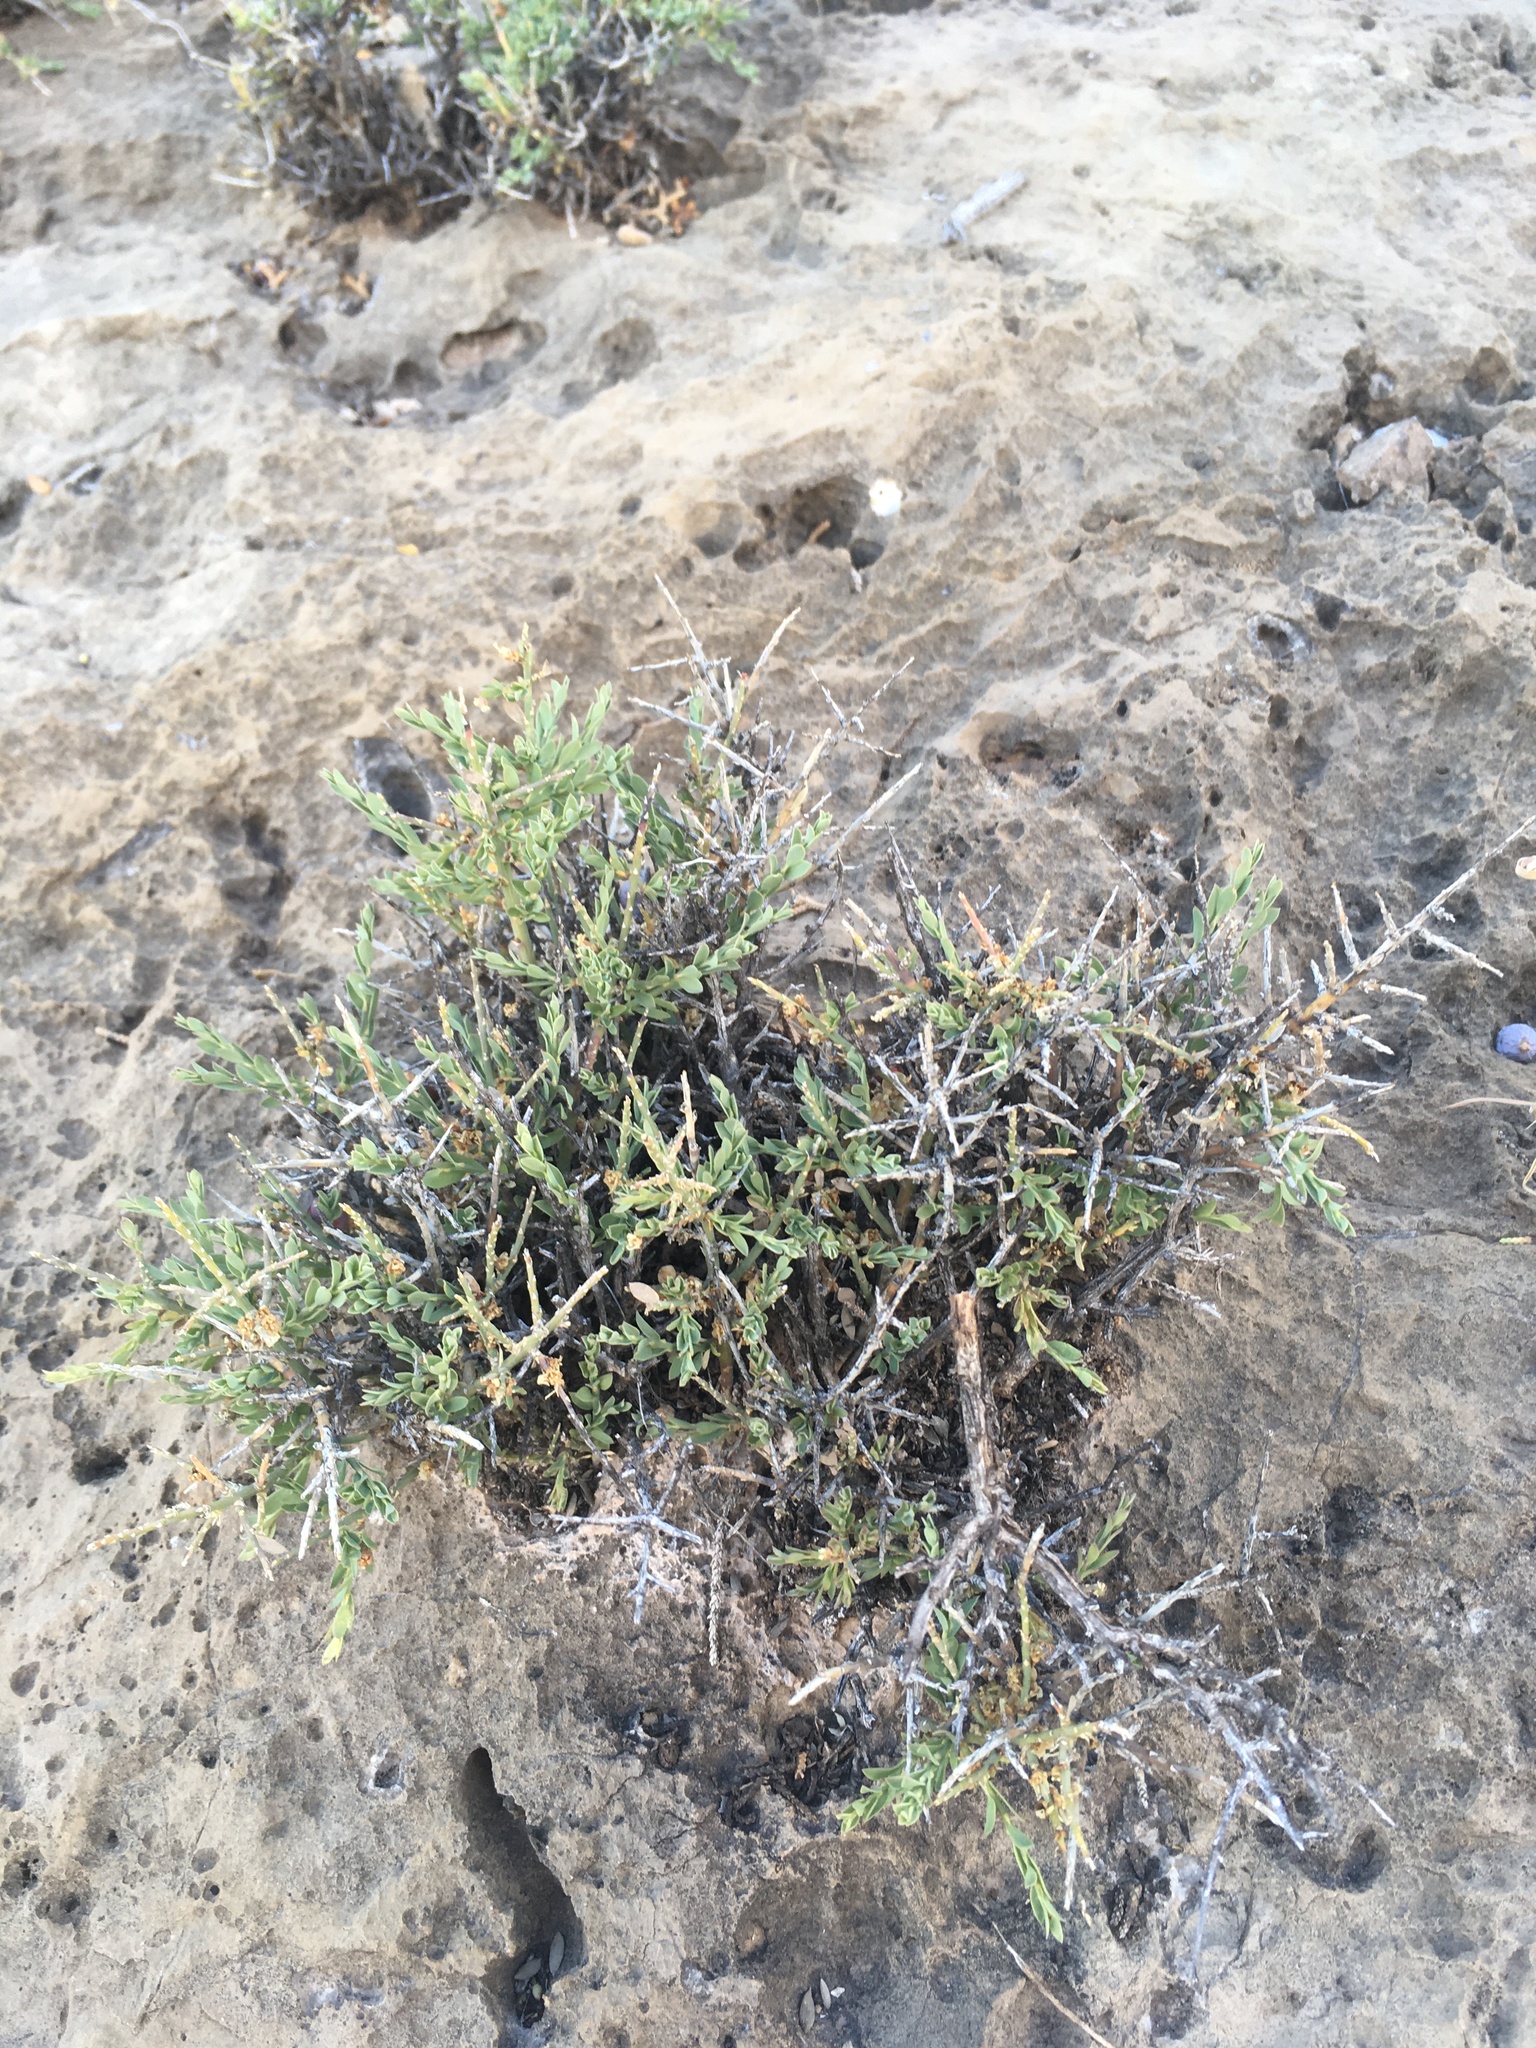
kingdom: Plantae
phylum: Tracheophyta
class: Magnoliopsida
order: Crossosomatales
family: Crossosomataceae
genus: Glossopetalon
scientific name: Glossopetalon spinescens
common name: Spring greasebush
